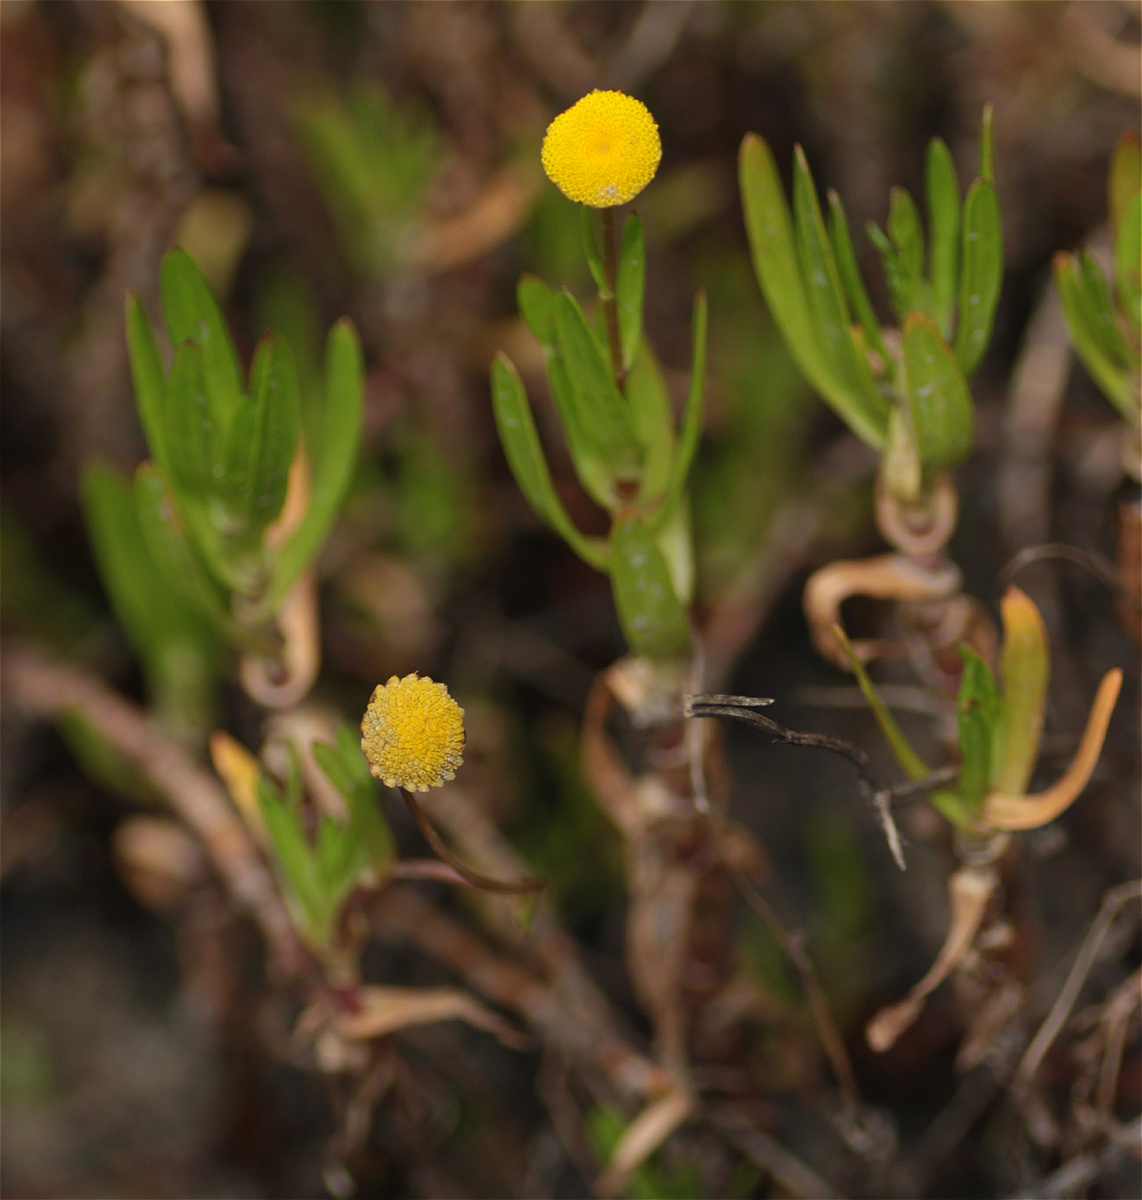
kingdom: Plantae
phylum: Tracheophyta
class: Magnoliopsida
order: Asterales
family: Asteraceae
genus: Cotula
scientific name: Cotula coronopifolia
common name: Buttonweed
